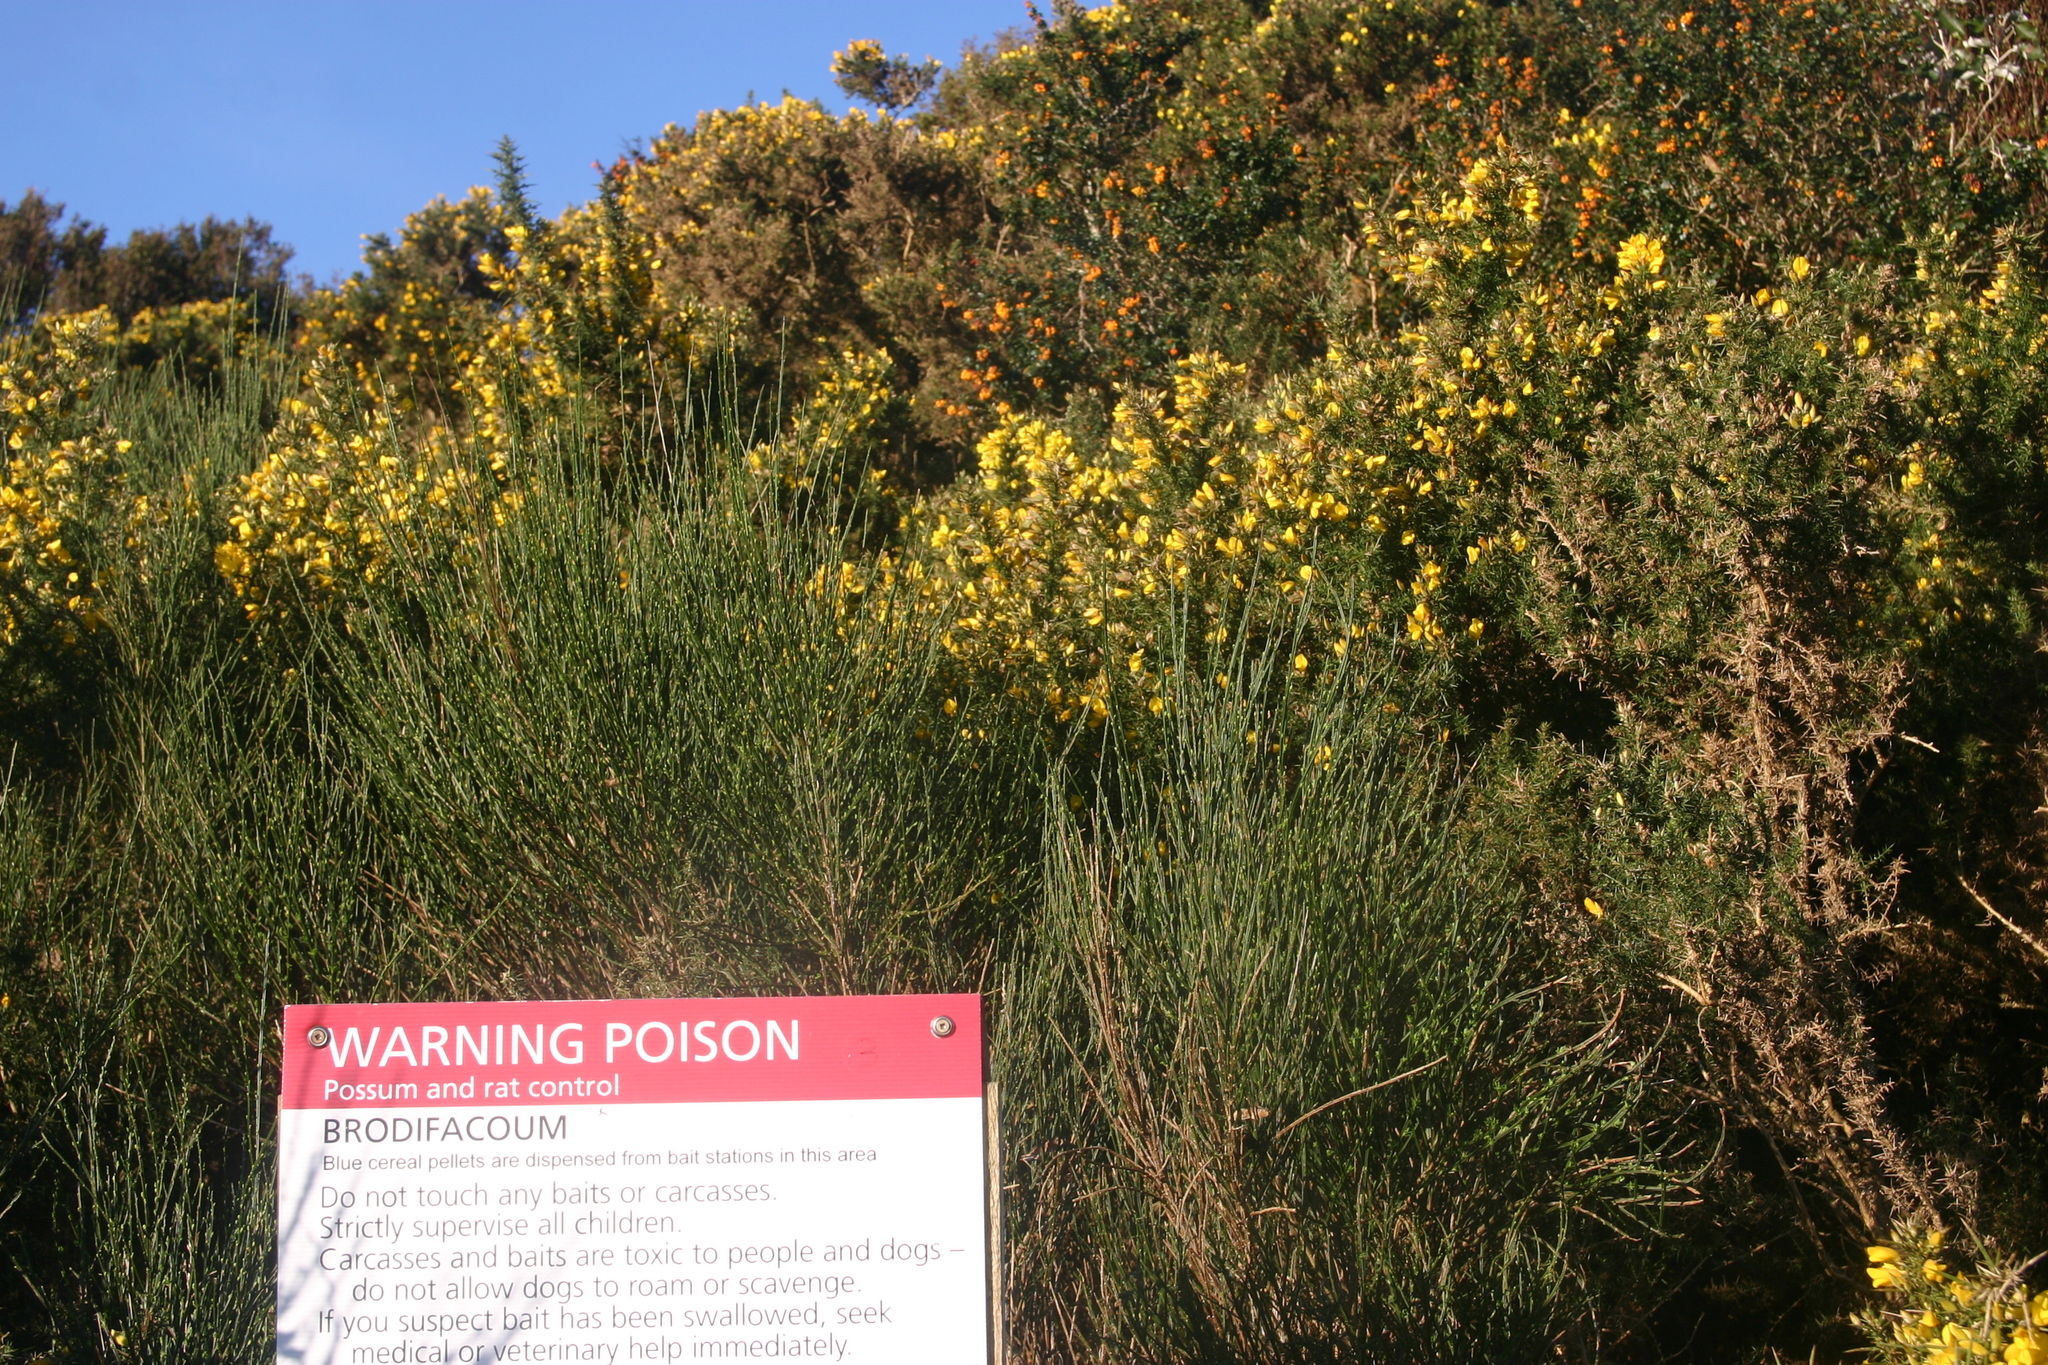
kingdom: Plantae
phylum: Tracheophyta
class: Magnoliopsida
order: Ranunculales
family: Berberidaceae
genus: Berberis
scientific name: Berberis darwinii
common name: Darwin's barberry
